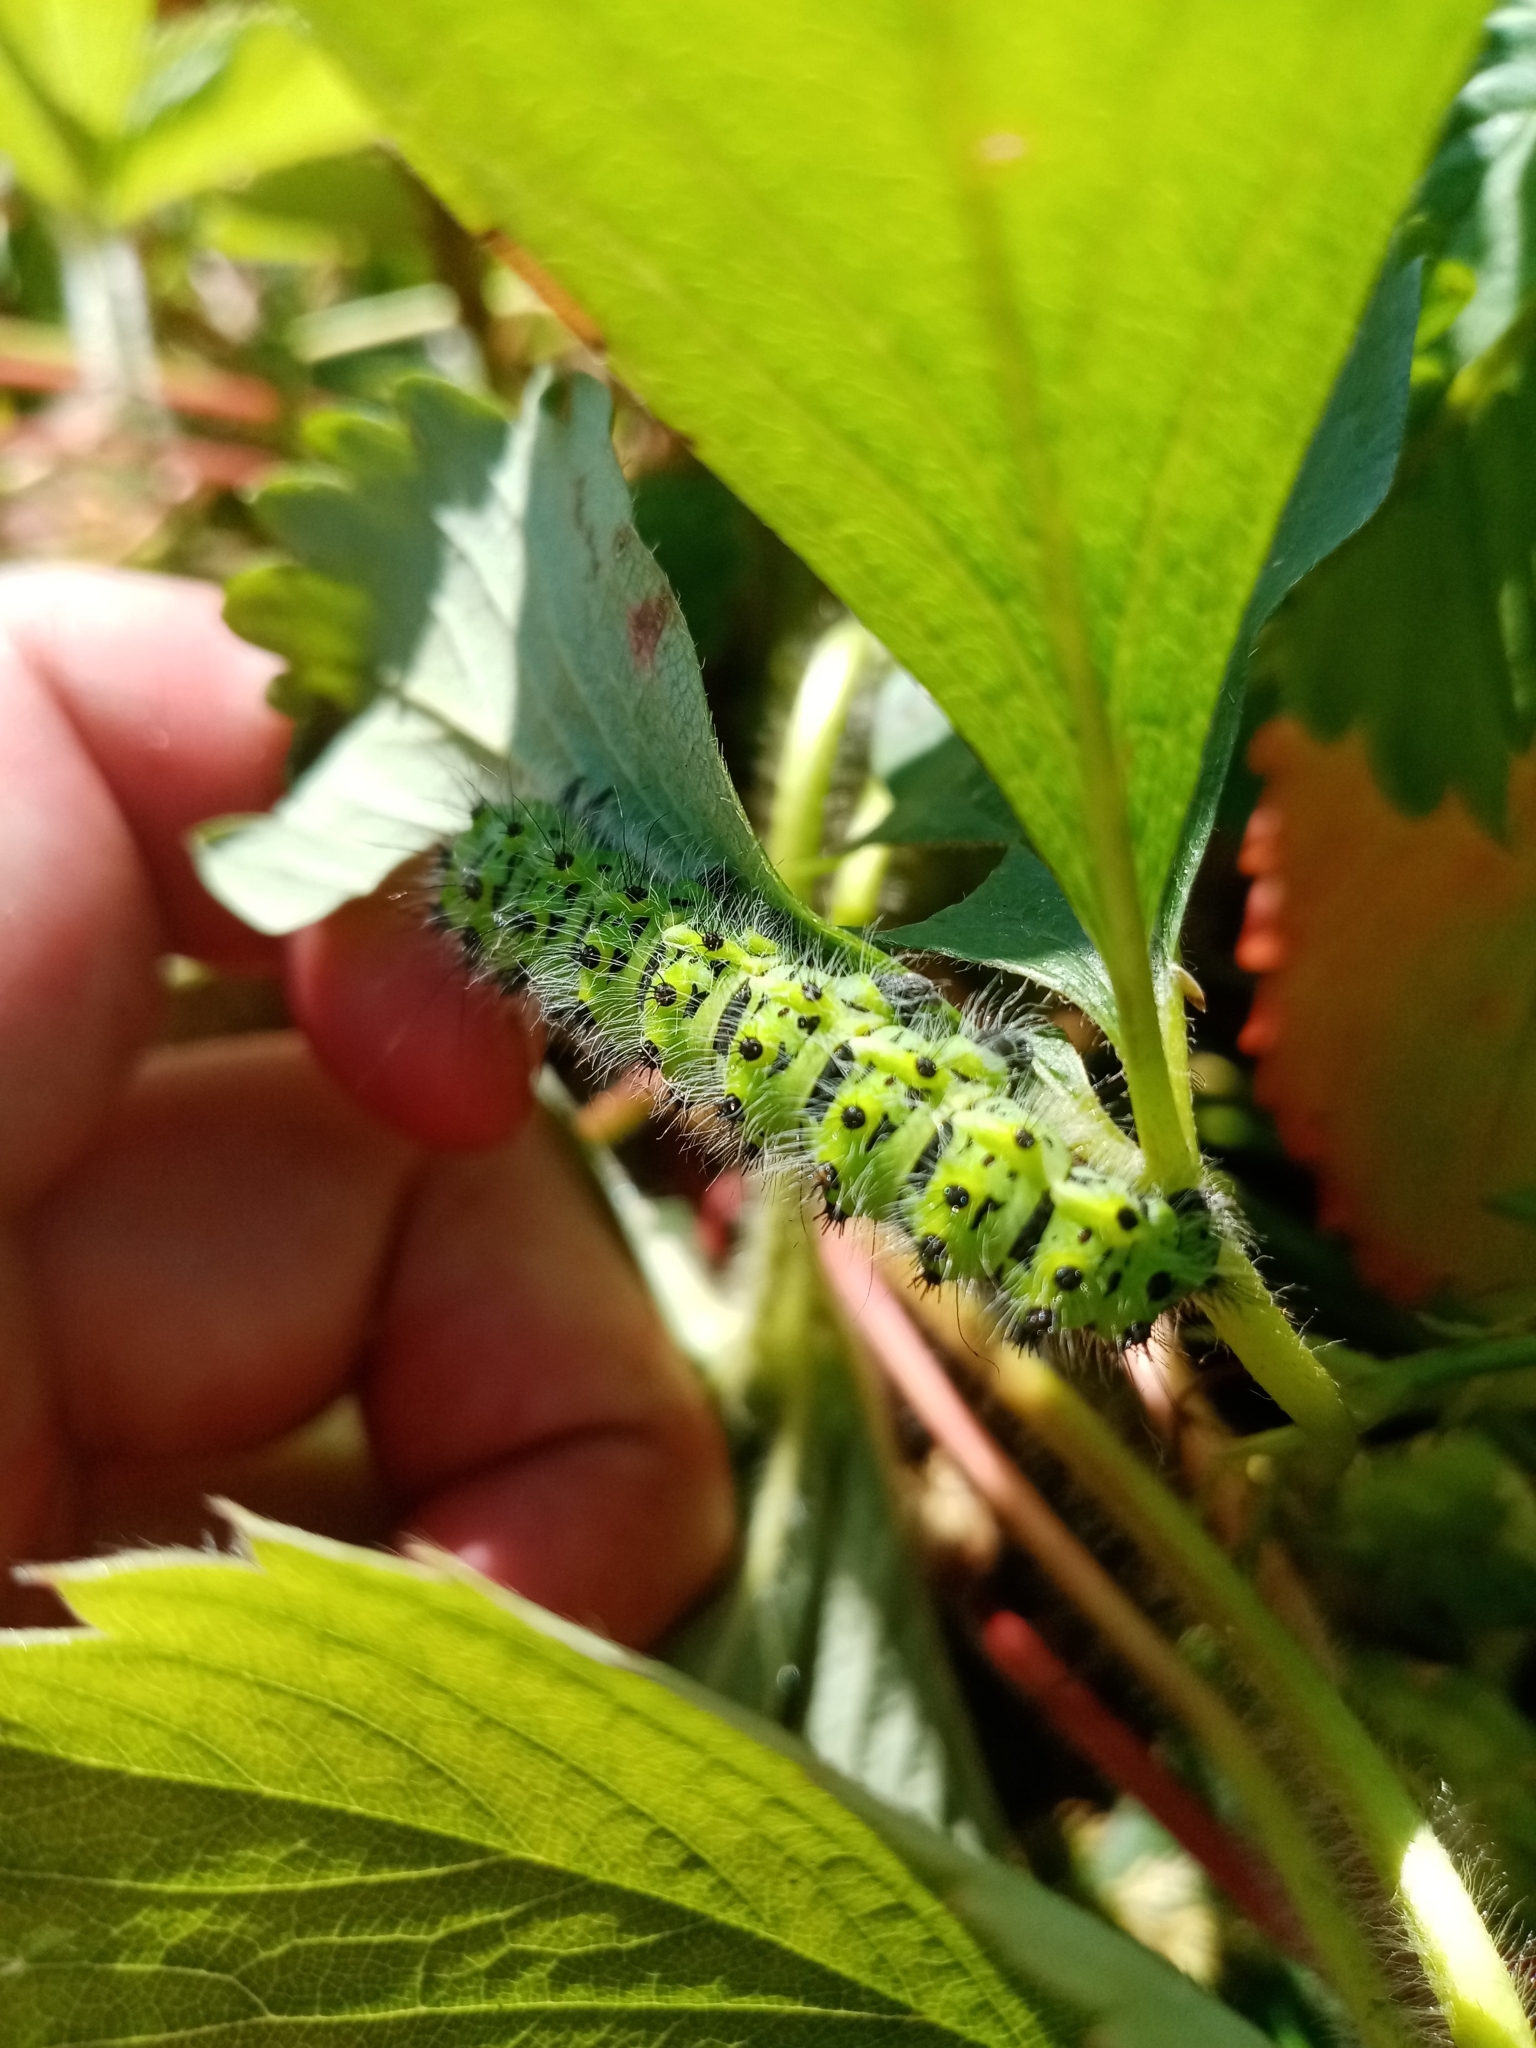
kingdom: Animalia
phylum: Arthropoda
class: Insecta
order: Lepidoptera
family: Saturniidae
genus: Saturnia
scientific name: Saturnia pavonia
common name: Emperor moth
